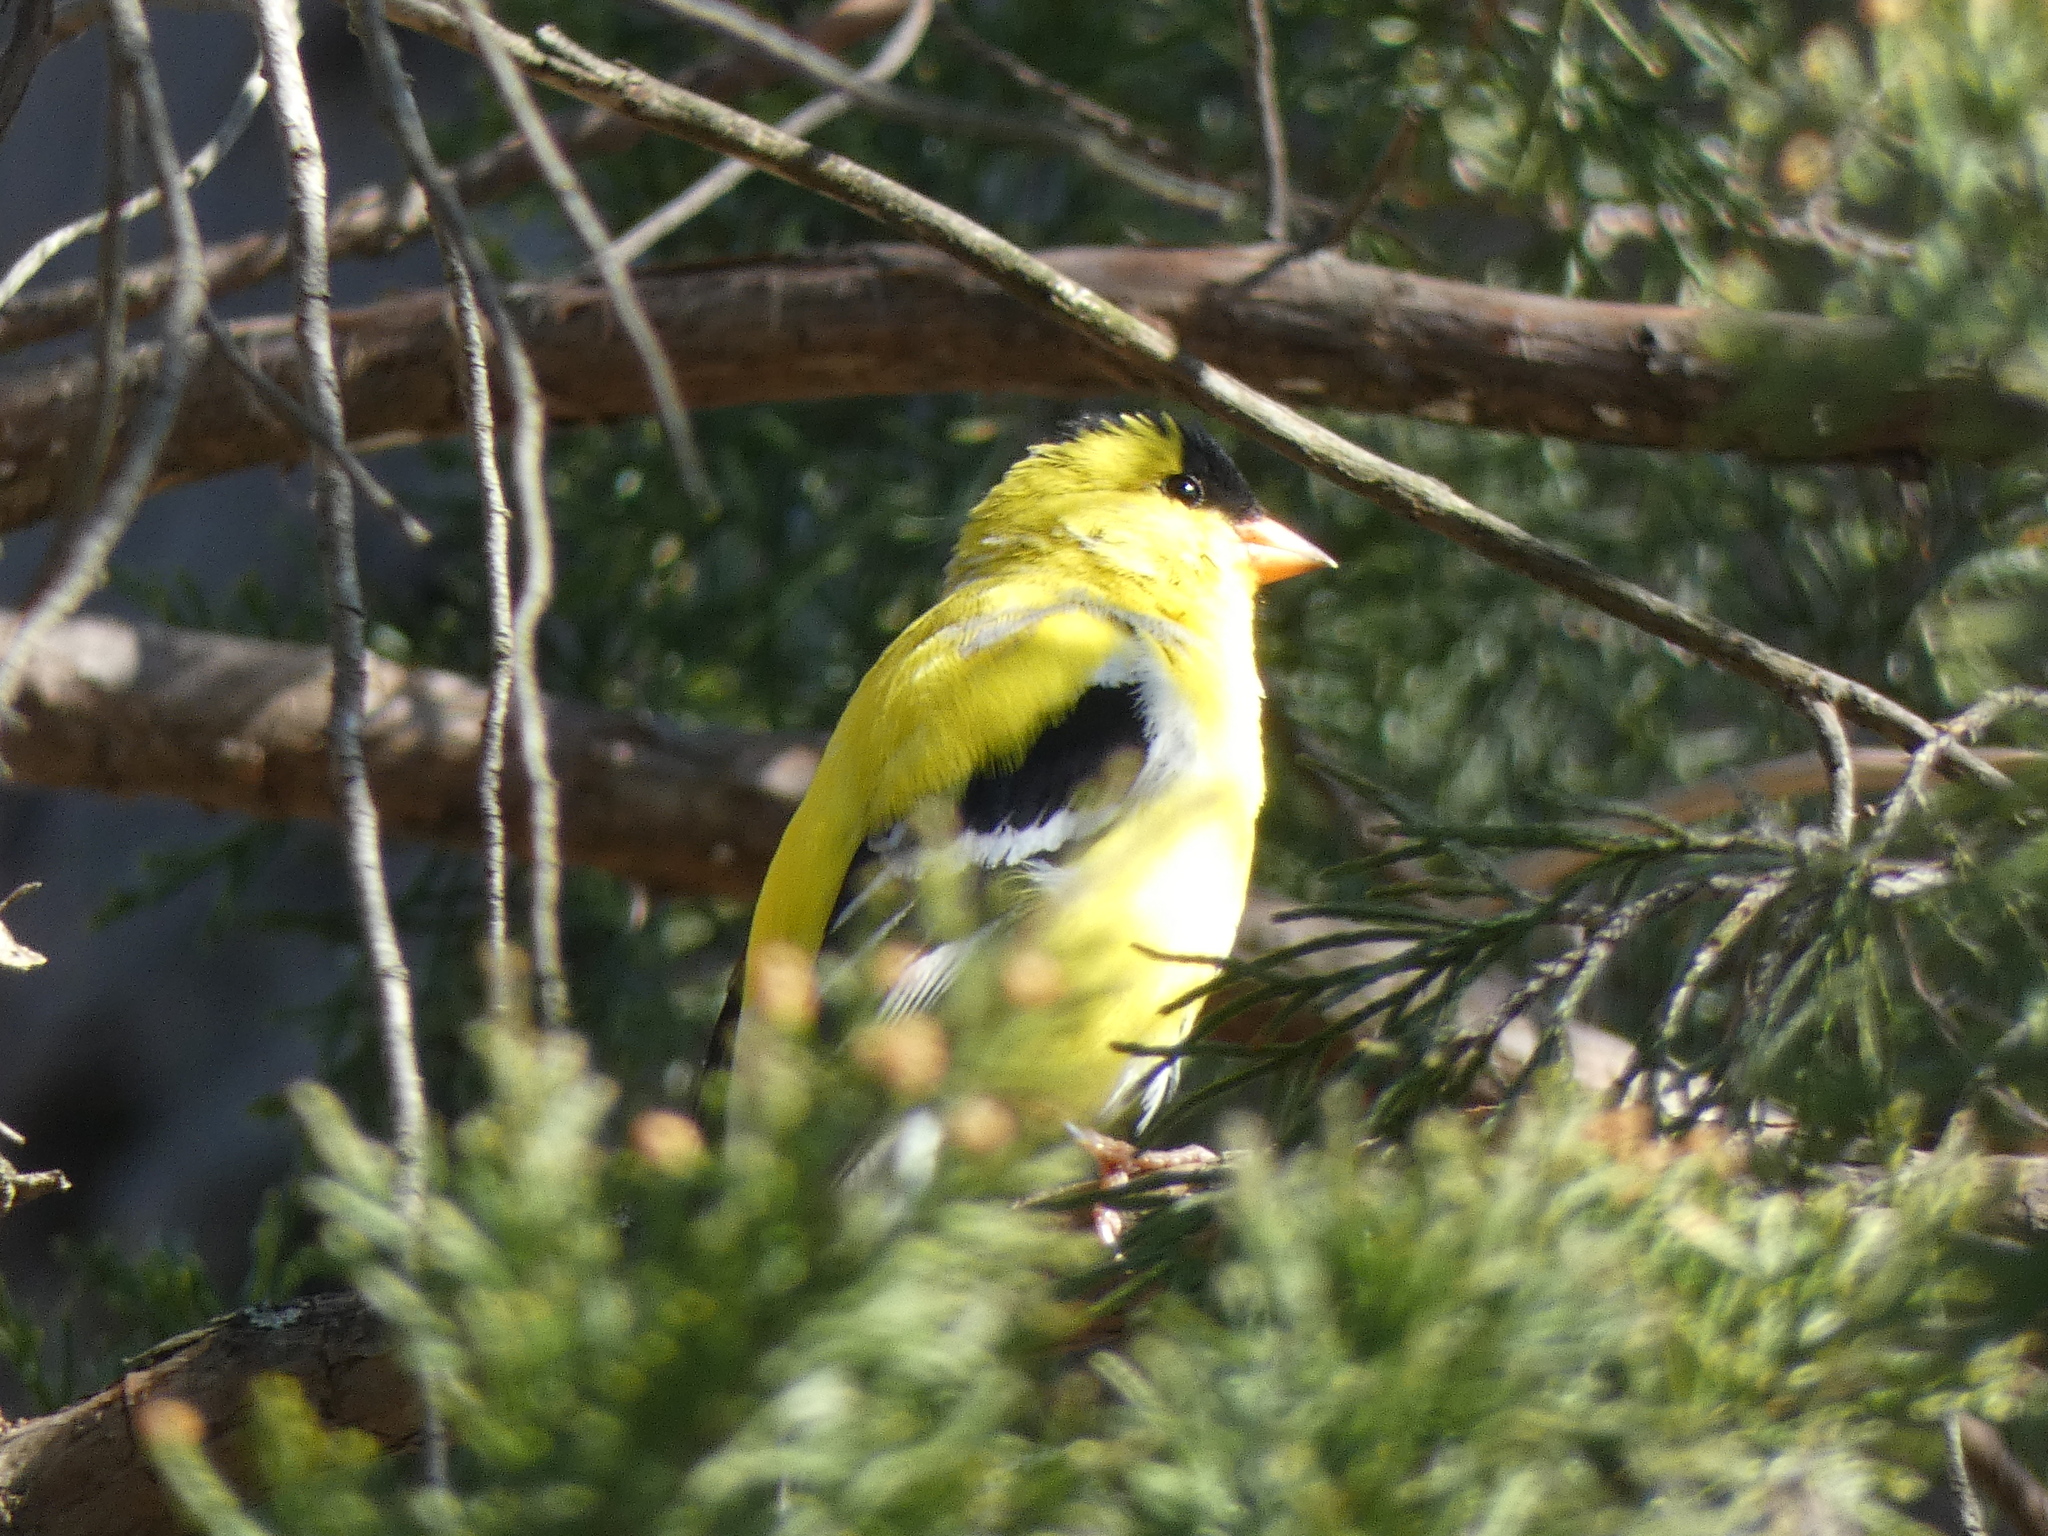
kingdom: Animalia
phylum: Chordata
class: Aves
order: Passeriformes
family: Fringillidae
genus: Spinus
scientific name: Spinus tristis
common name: American goldfinch
